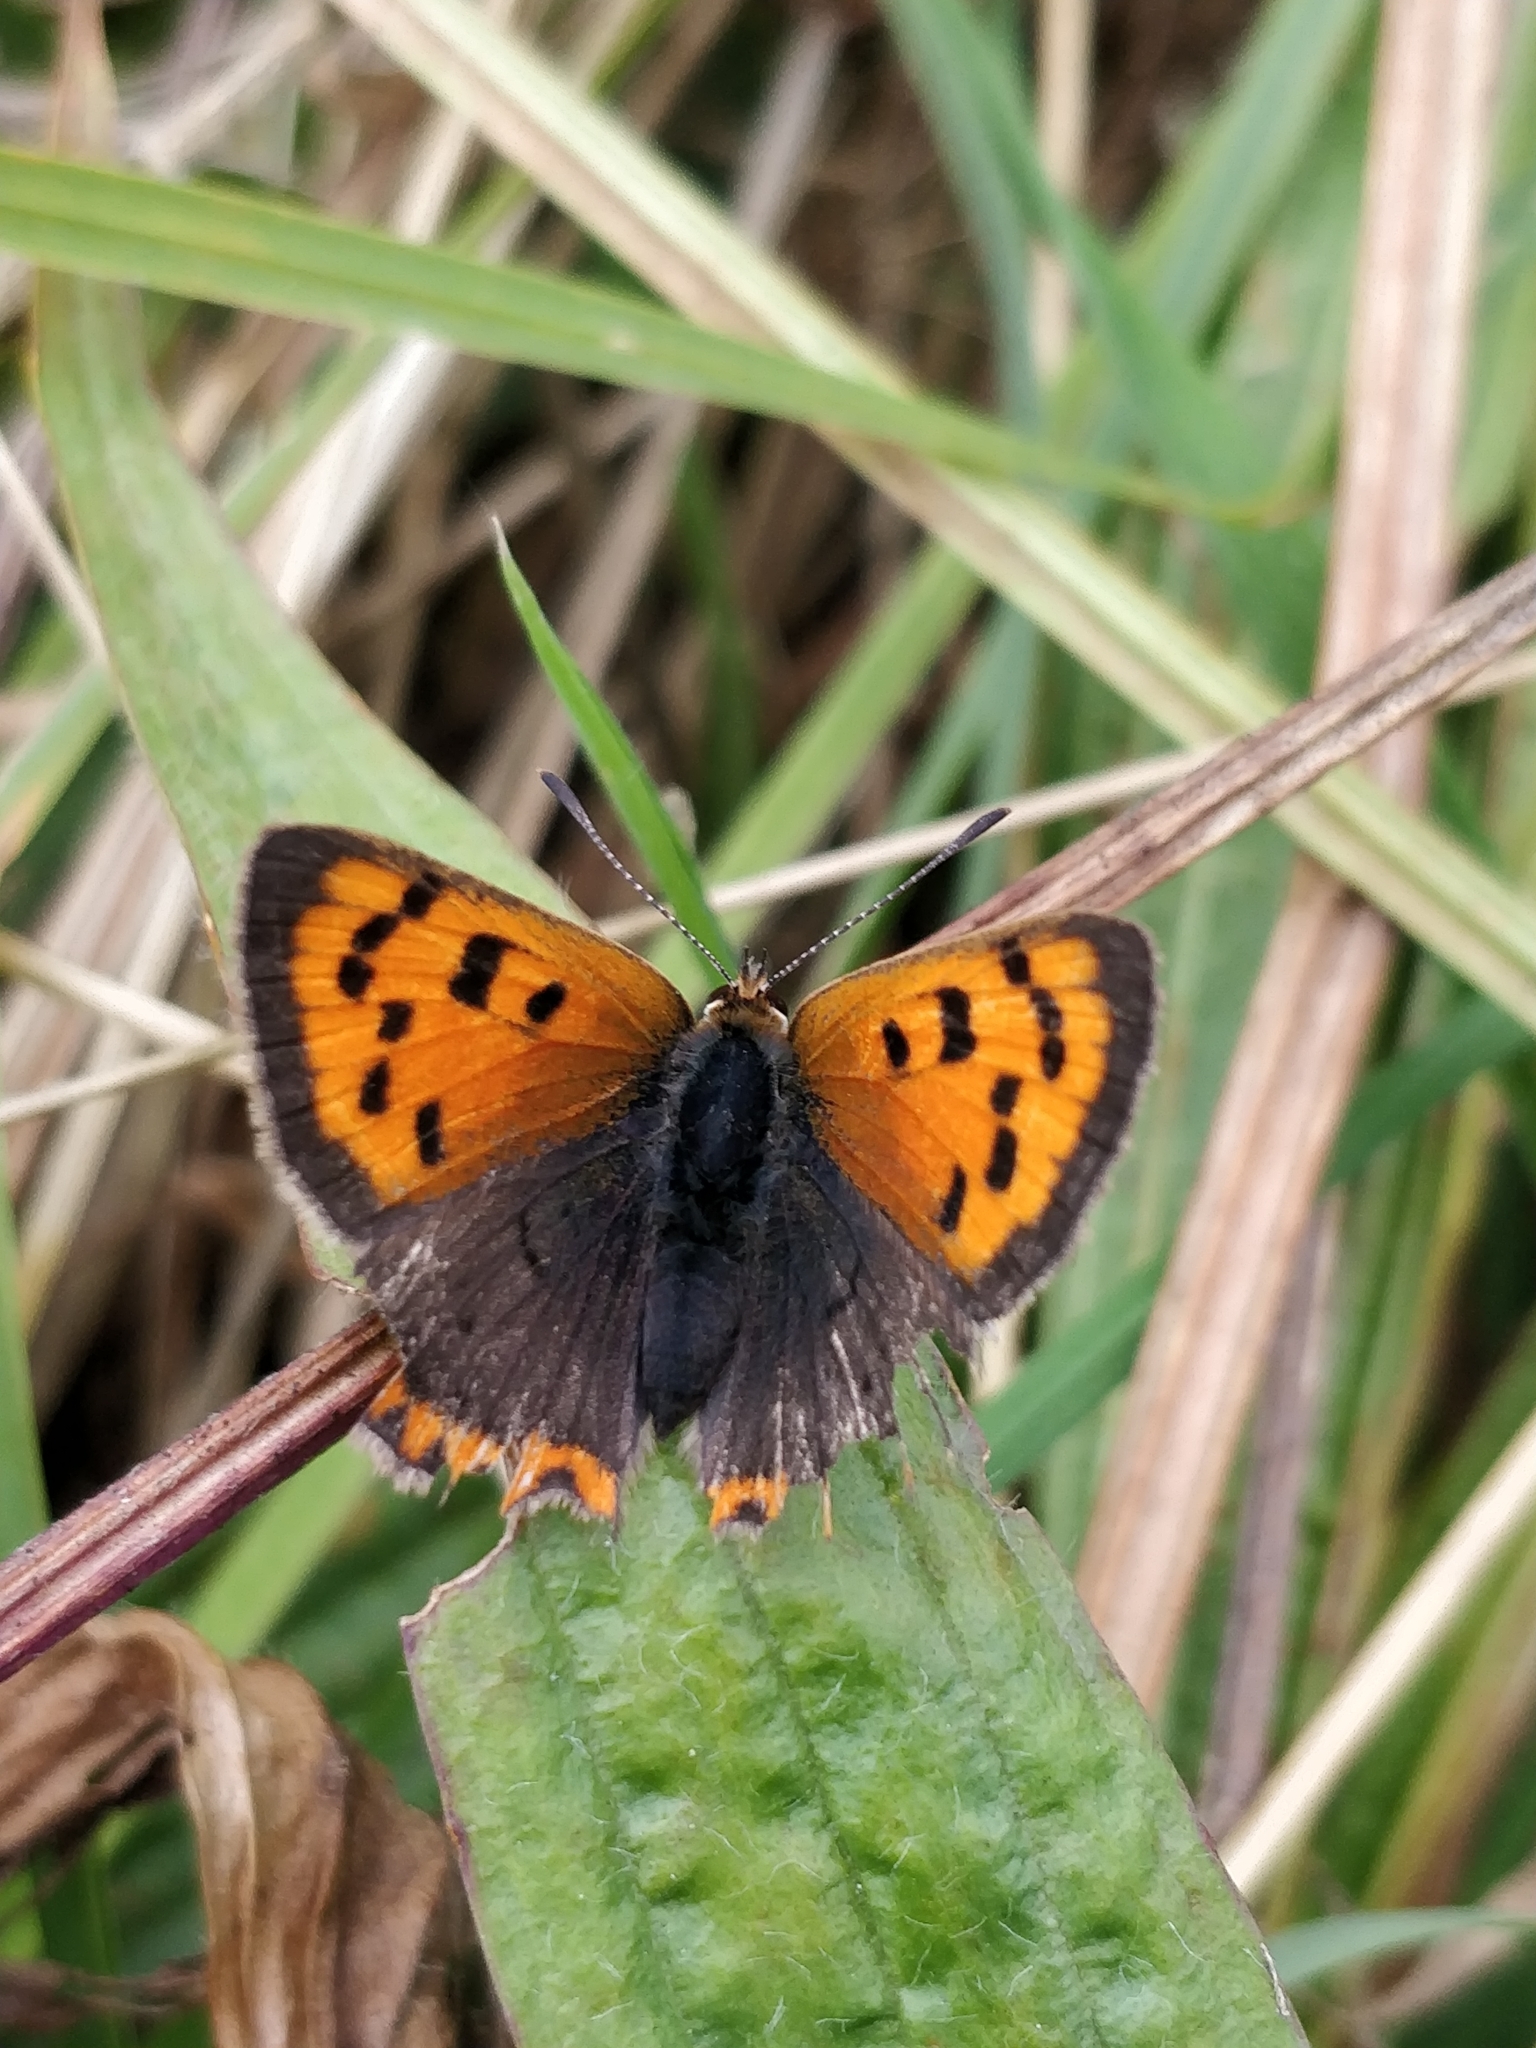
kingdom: Animalia
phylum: Arthropoda
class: Insecta
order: Lepidoptera
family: Lycaenidae
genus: Lycaena
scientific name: Lycaena phlaeas
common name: Small copper
